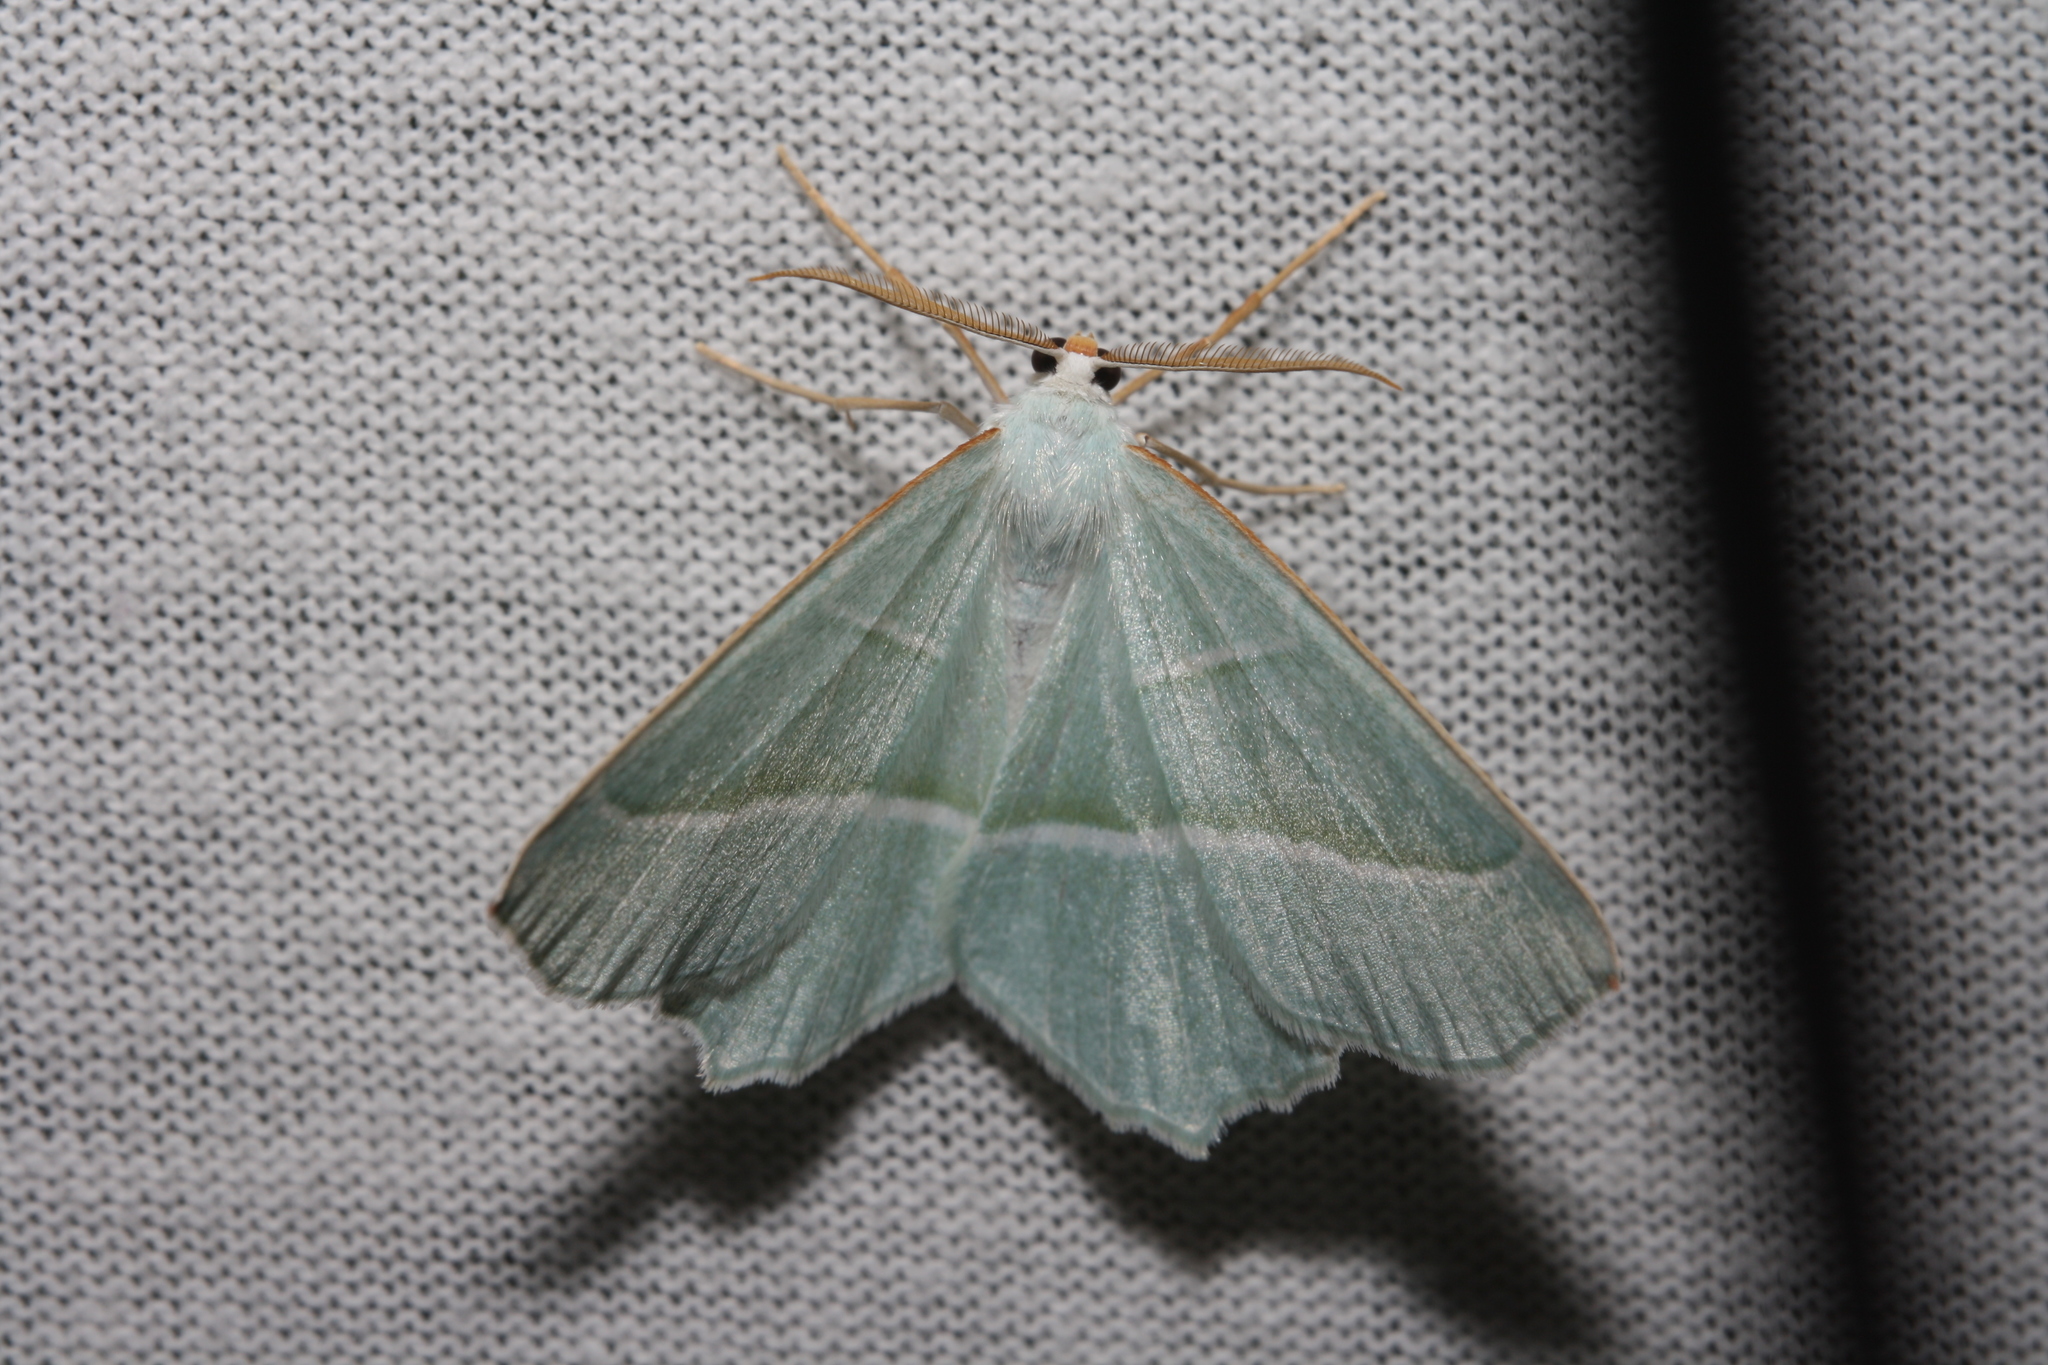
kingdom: Animalia
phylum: Arthropoda
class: Insecta
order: Lepidoptera
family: Geometridae
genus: Campaea
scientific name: Campaea margaritaria
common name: Light emerald
